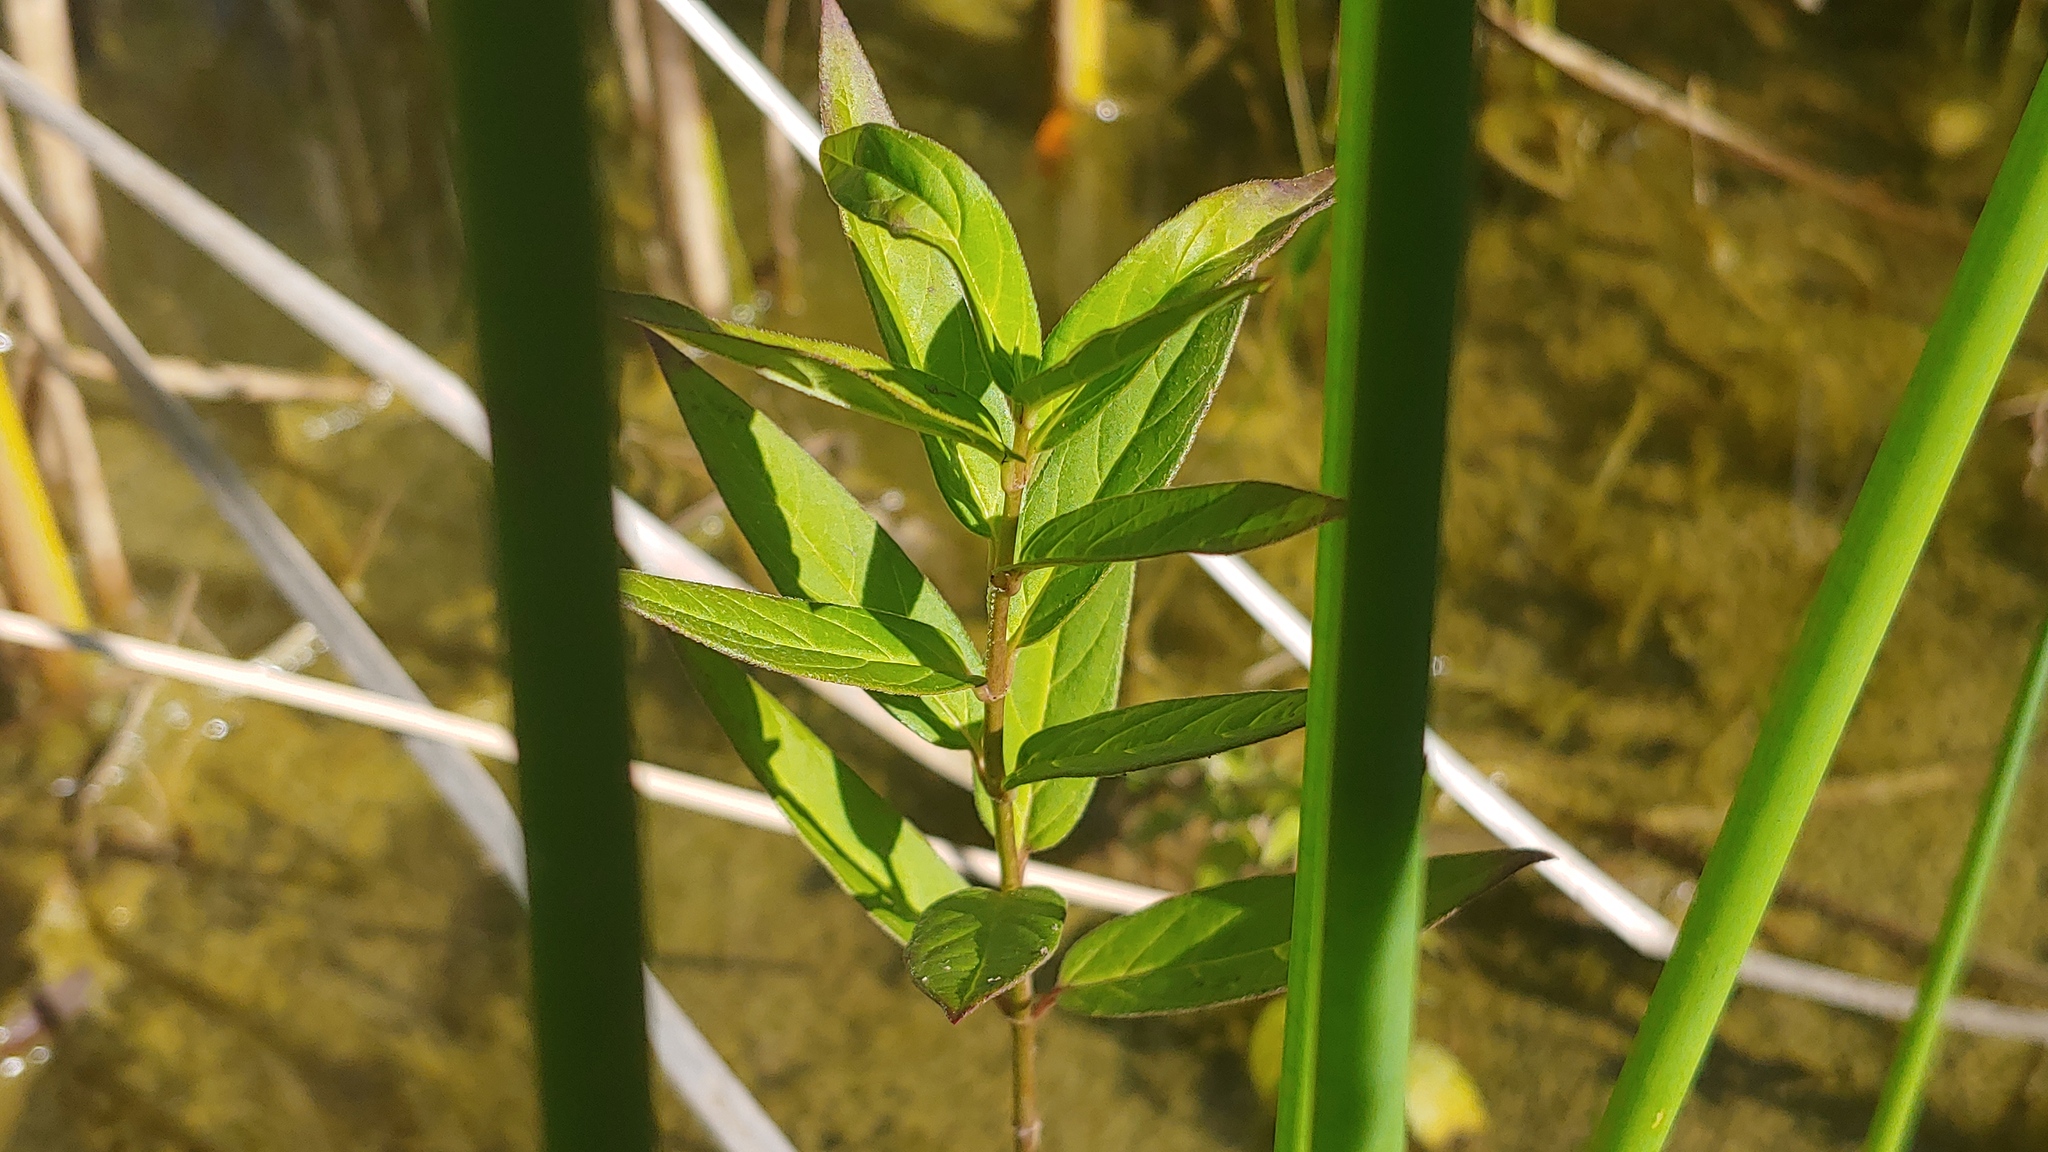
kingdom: Plantae
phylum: Tracheophyta
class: Magnoliopsida
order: Gentianales
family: Apocynaceae
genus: Asclepias
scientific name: Asclepias incarnata
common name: Swamp milkweed
